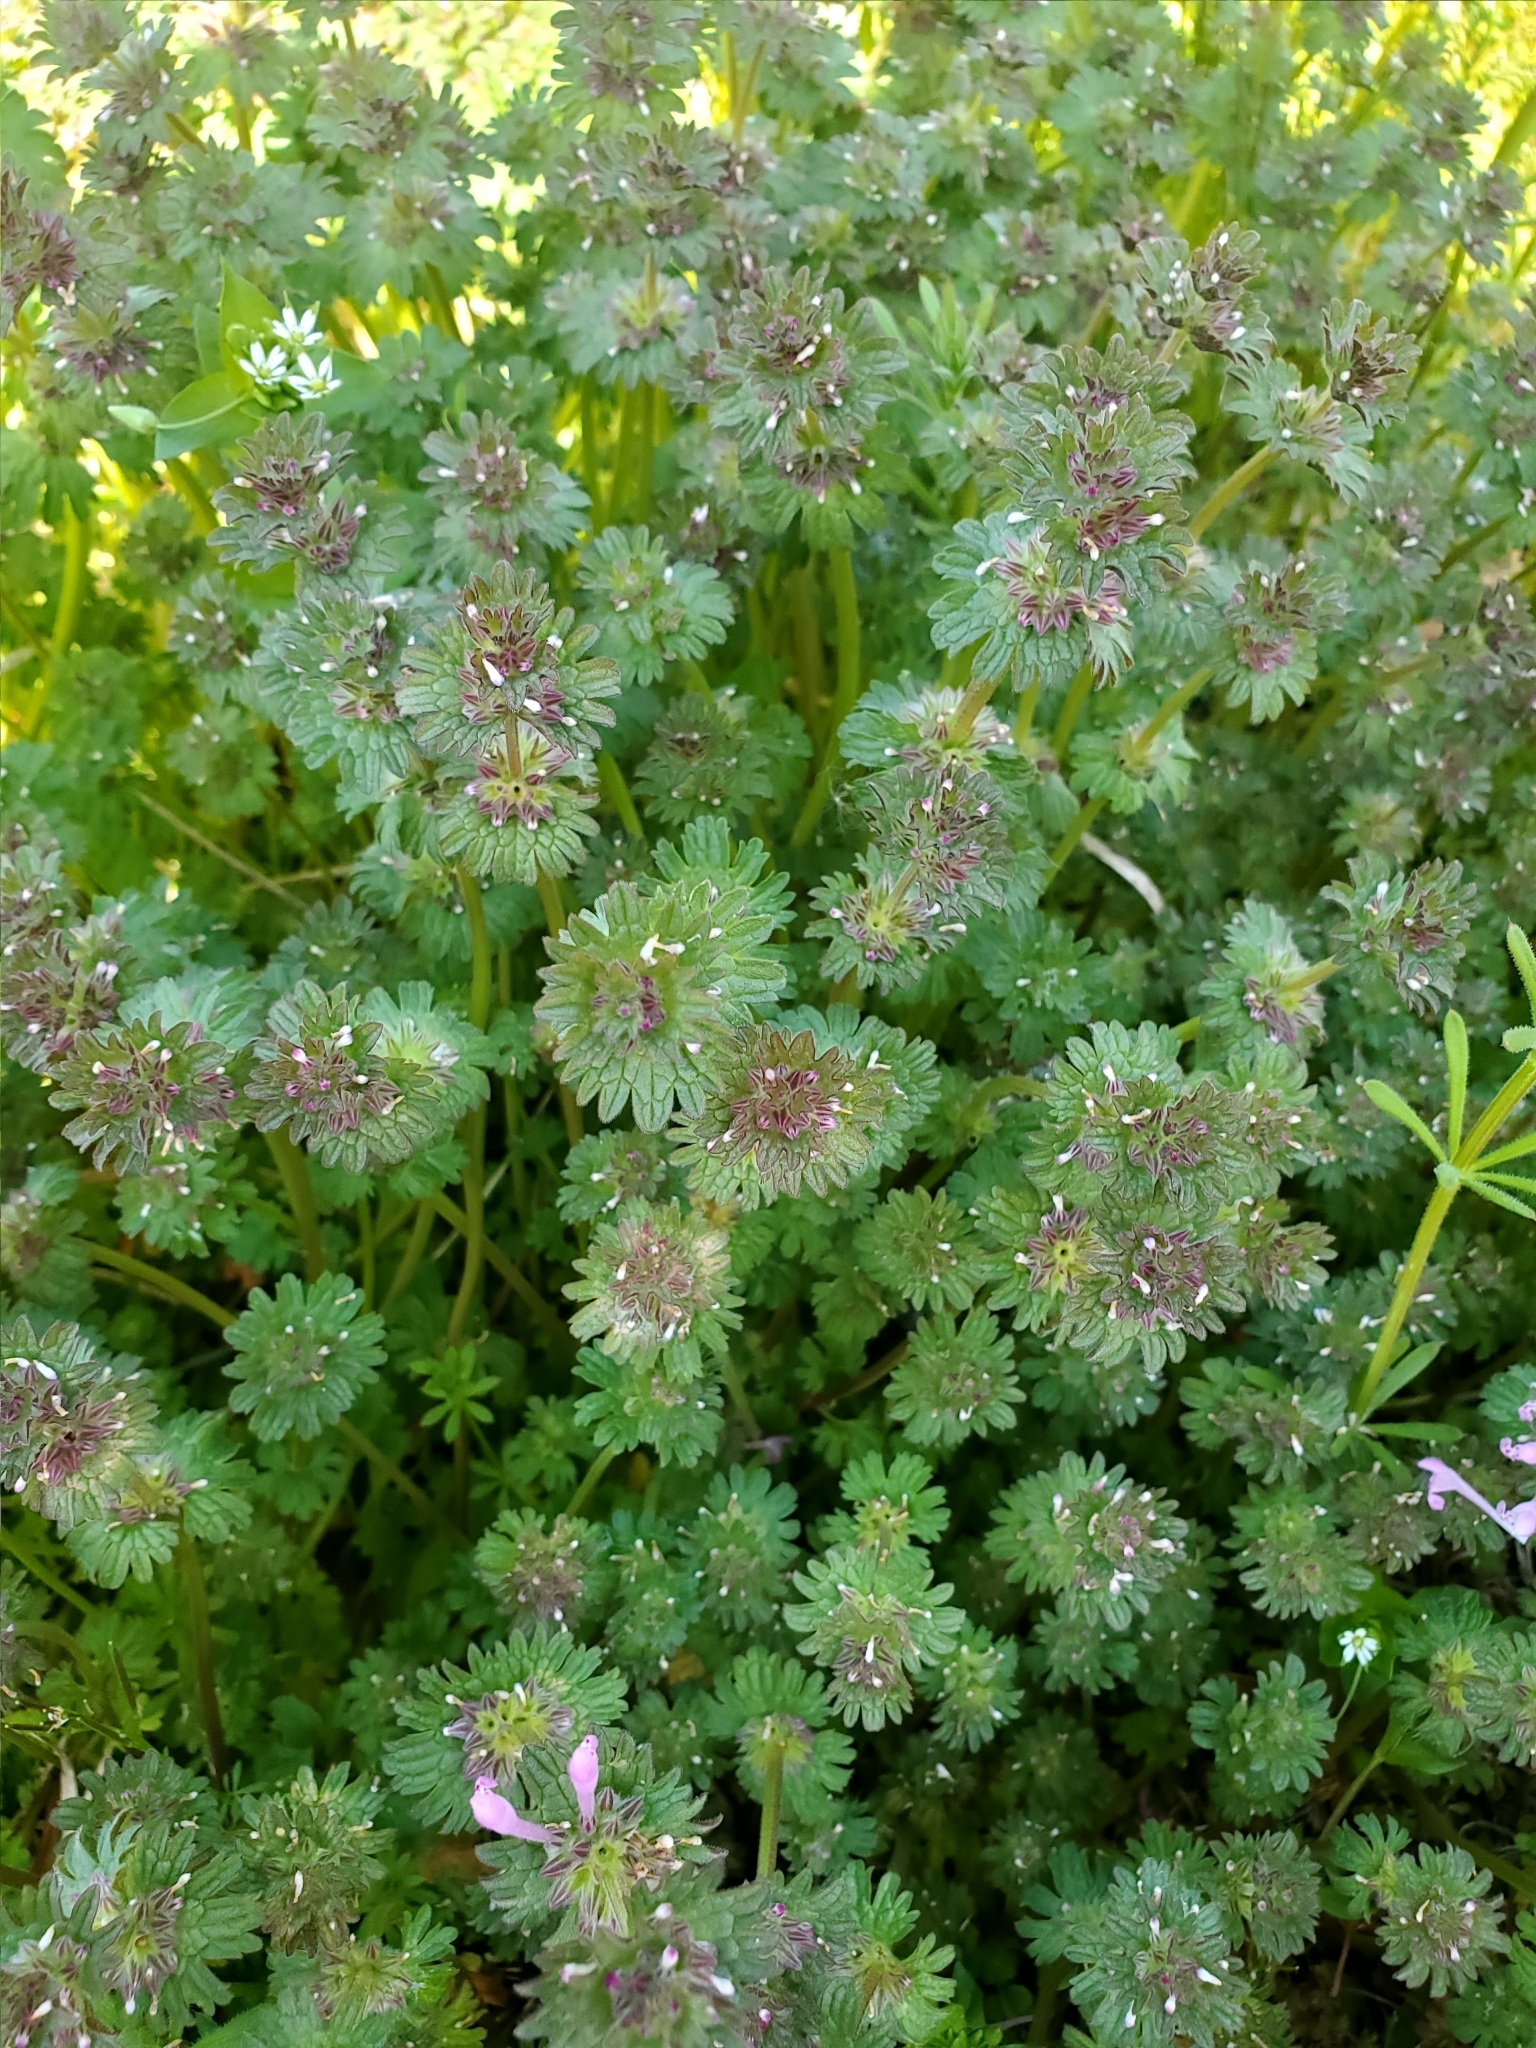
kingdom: Plantae
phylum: Tracheophyta
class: Magnoliopsida
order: Lamiales
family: Lamiaceae
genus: Lamium
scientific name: Lamium amplexicaule
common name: Henbit dead-nettle
